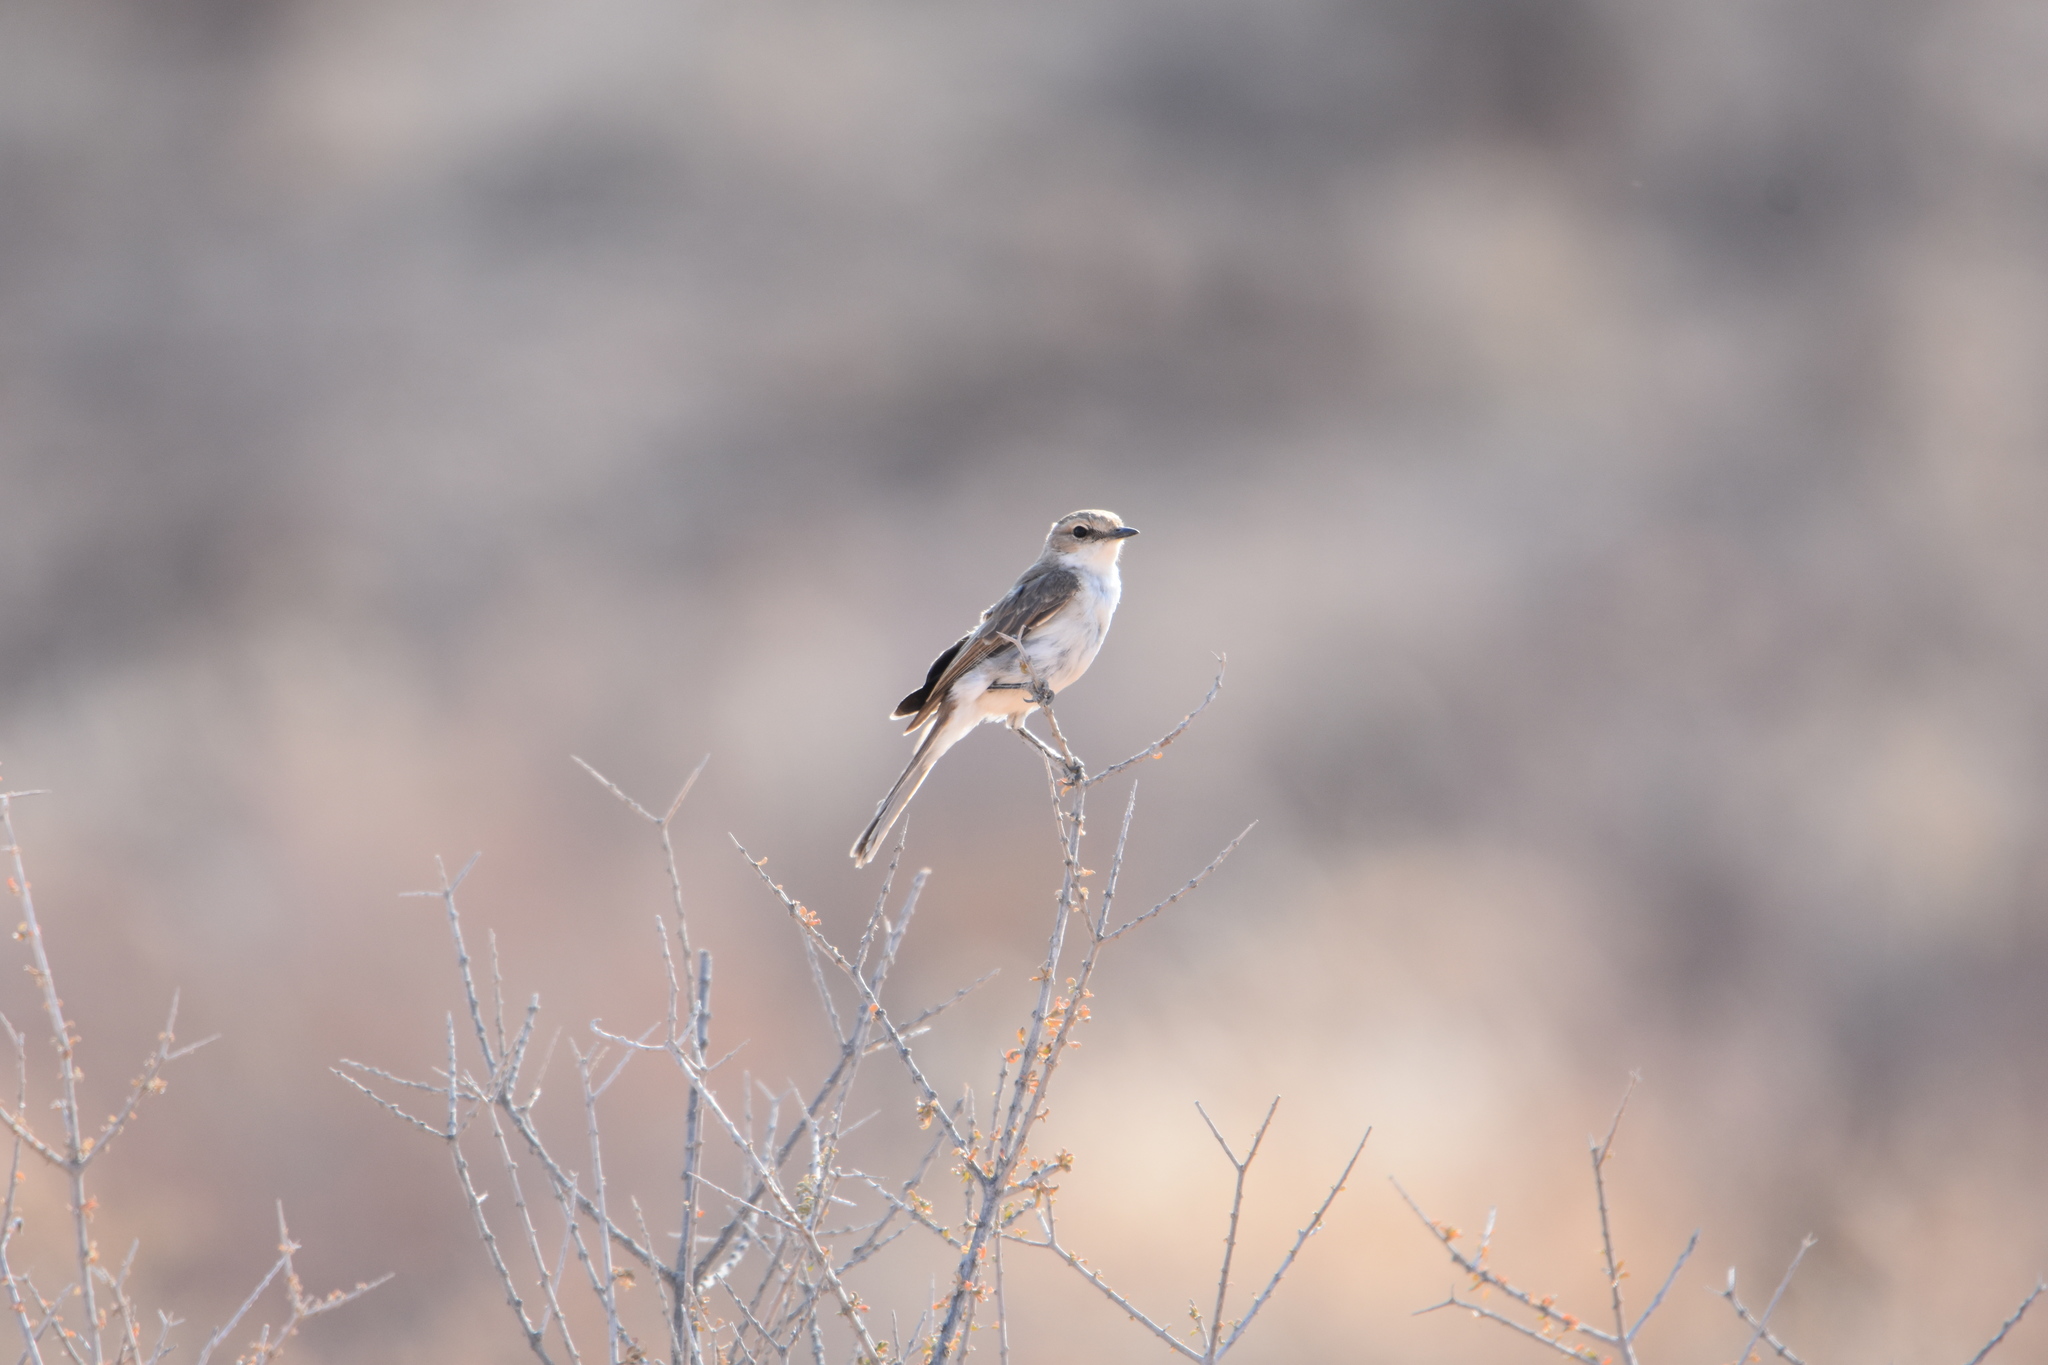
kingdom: Animalia
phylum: Chordata
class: Aves
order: Passeriformes
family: Muscicapidae
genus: Bradornis
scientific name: Bradornis mariquensis
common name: Marico flycatcher
